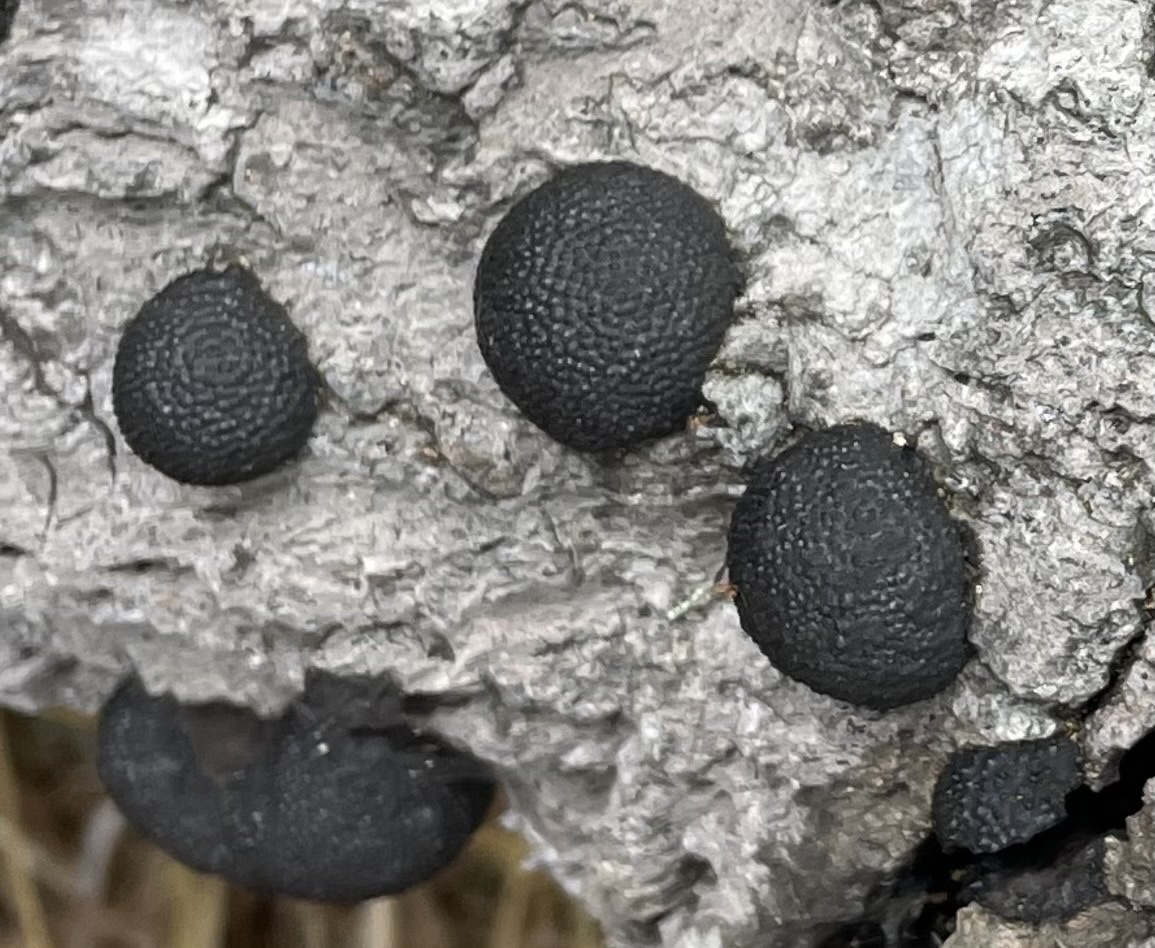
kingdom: Fungi
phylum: Ascomycota
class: Sordariomycetes
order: Xylariales
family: Hypoxylaceae
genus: Annulohypoxylon
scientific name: Annulohypoxylon thouarsianum
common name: Cramp balls
